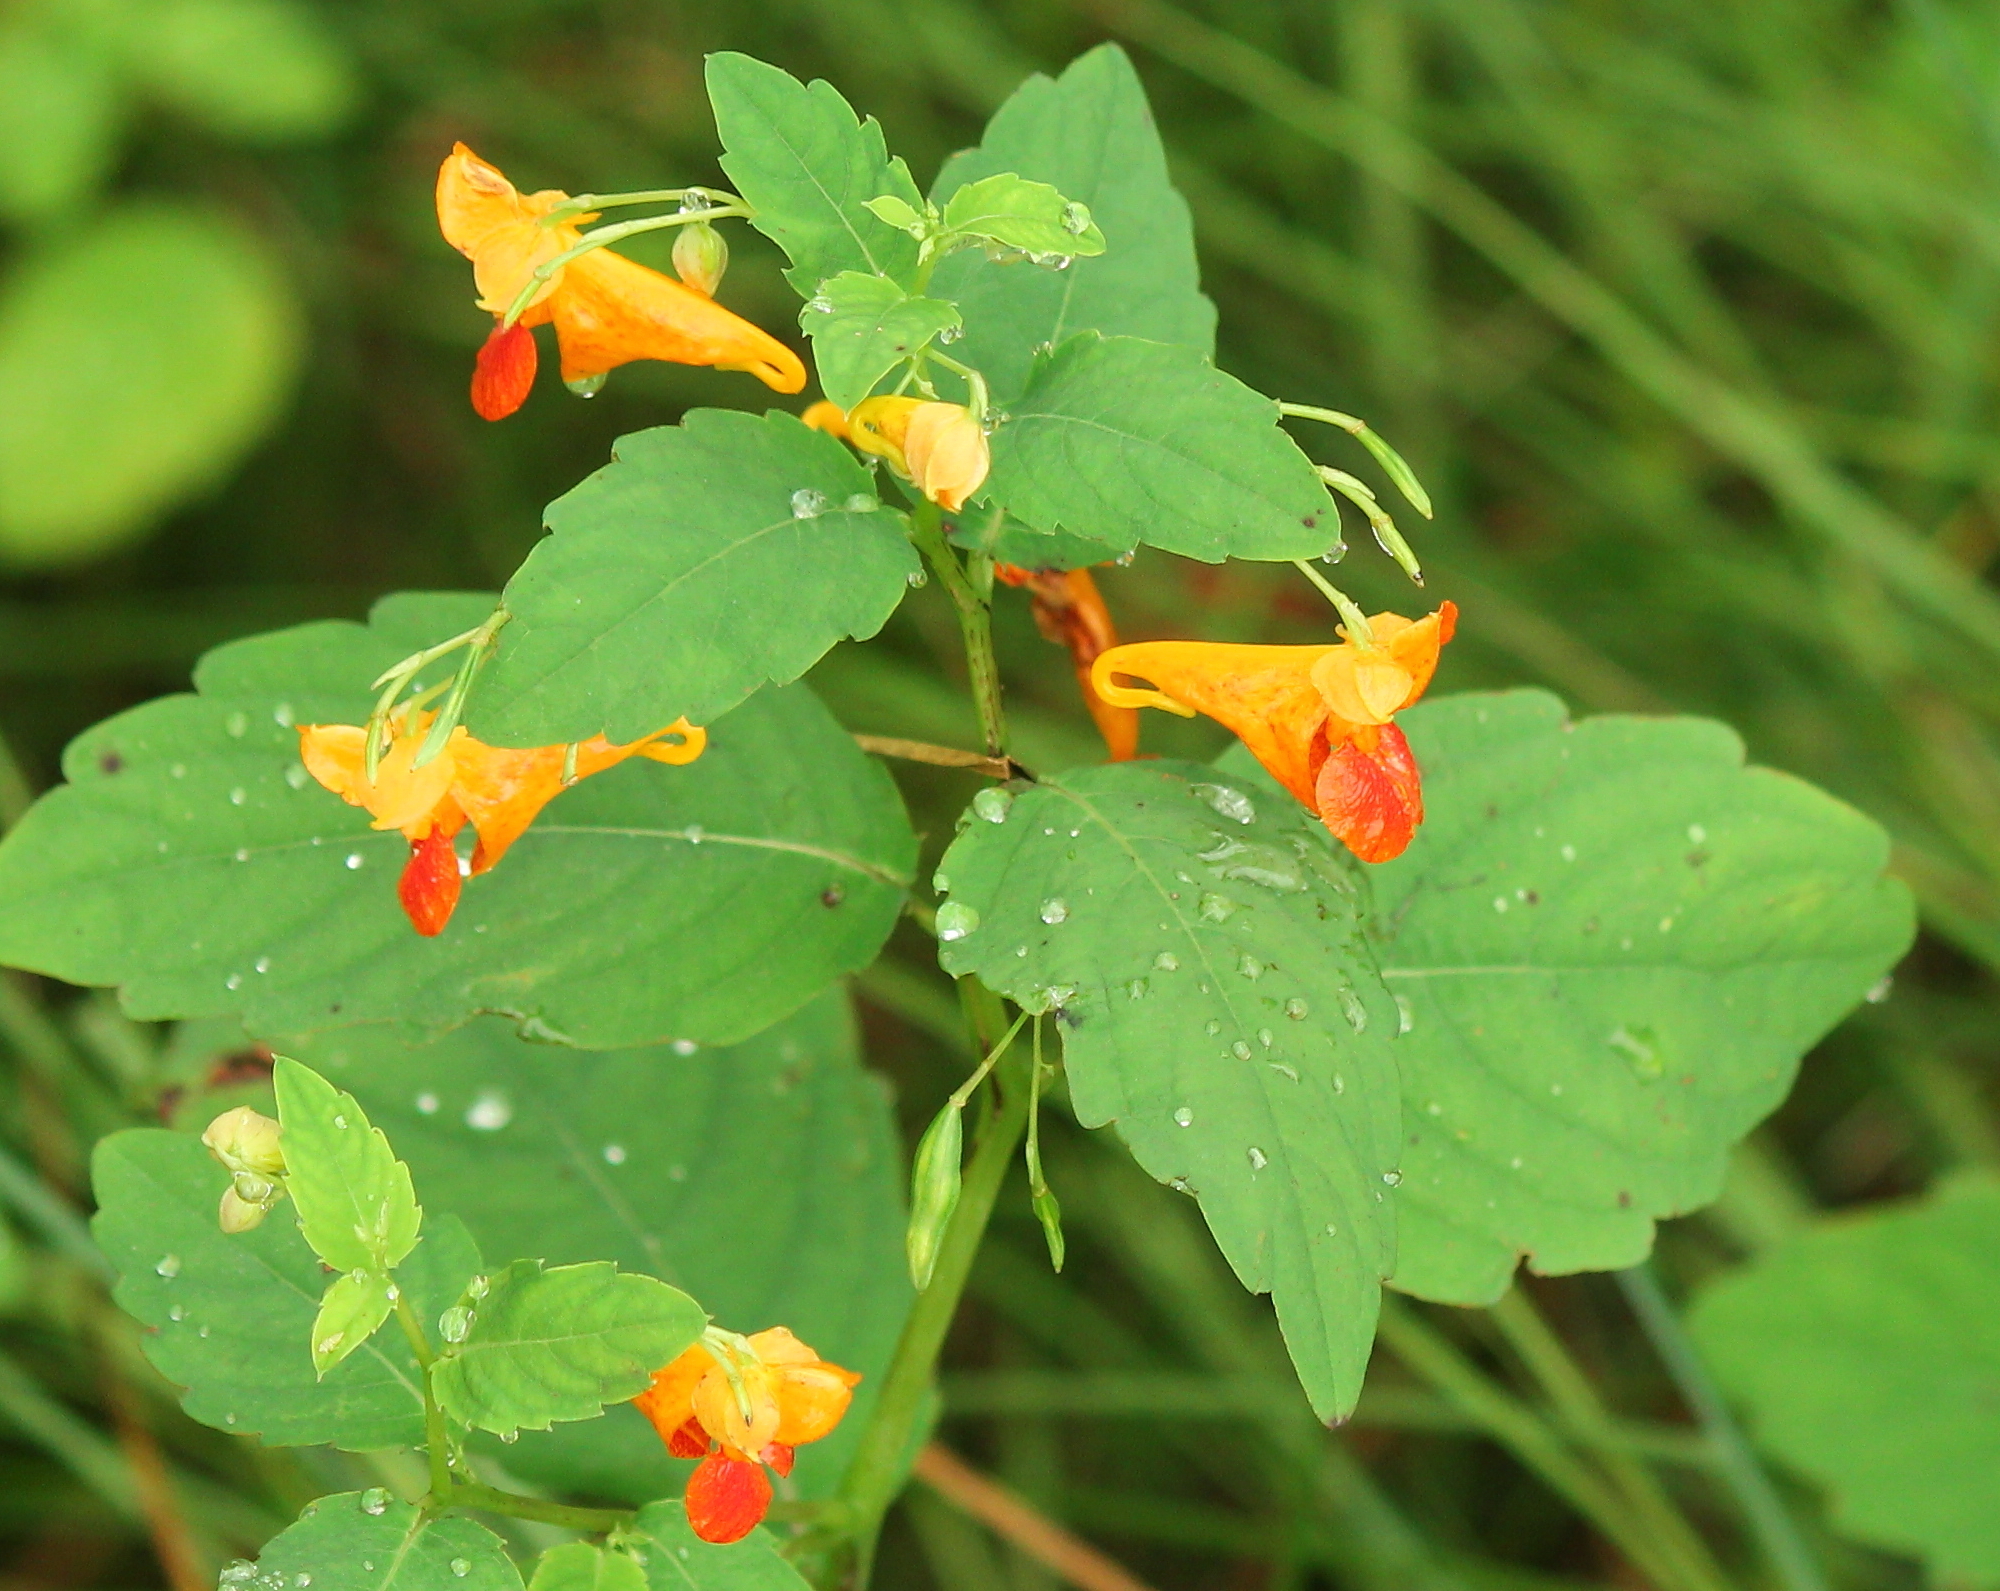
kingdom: Plantae
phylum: Tracheophyta
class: Magnoliopsida
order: Ericales
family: Balsaminaceae
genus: Impatiens
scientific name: Impatiens capensis
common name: Orange balsam
